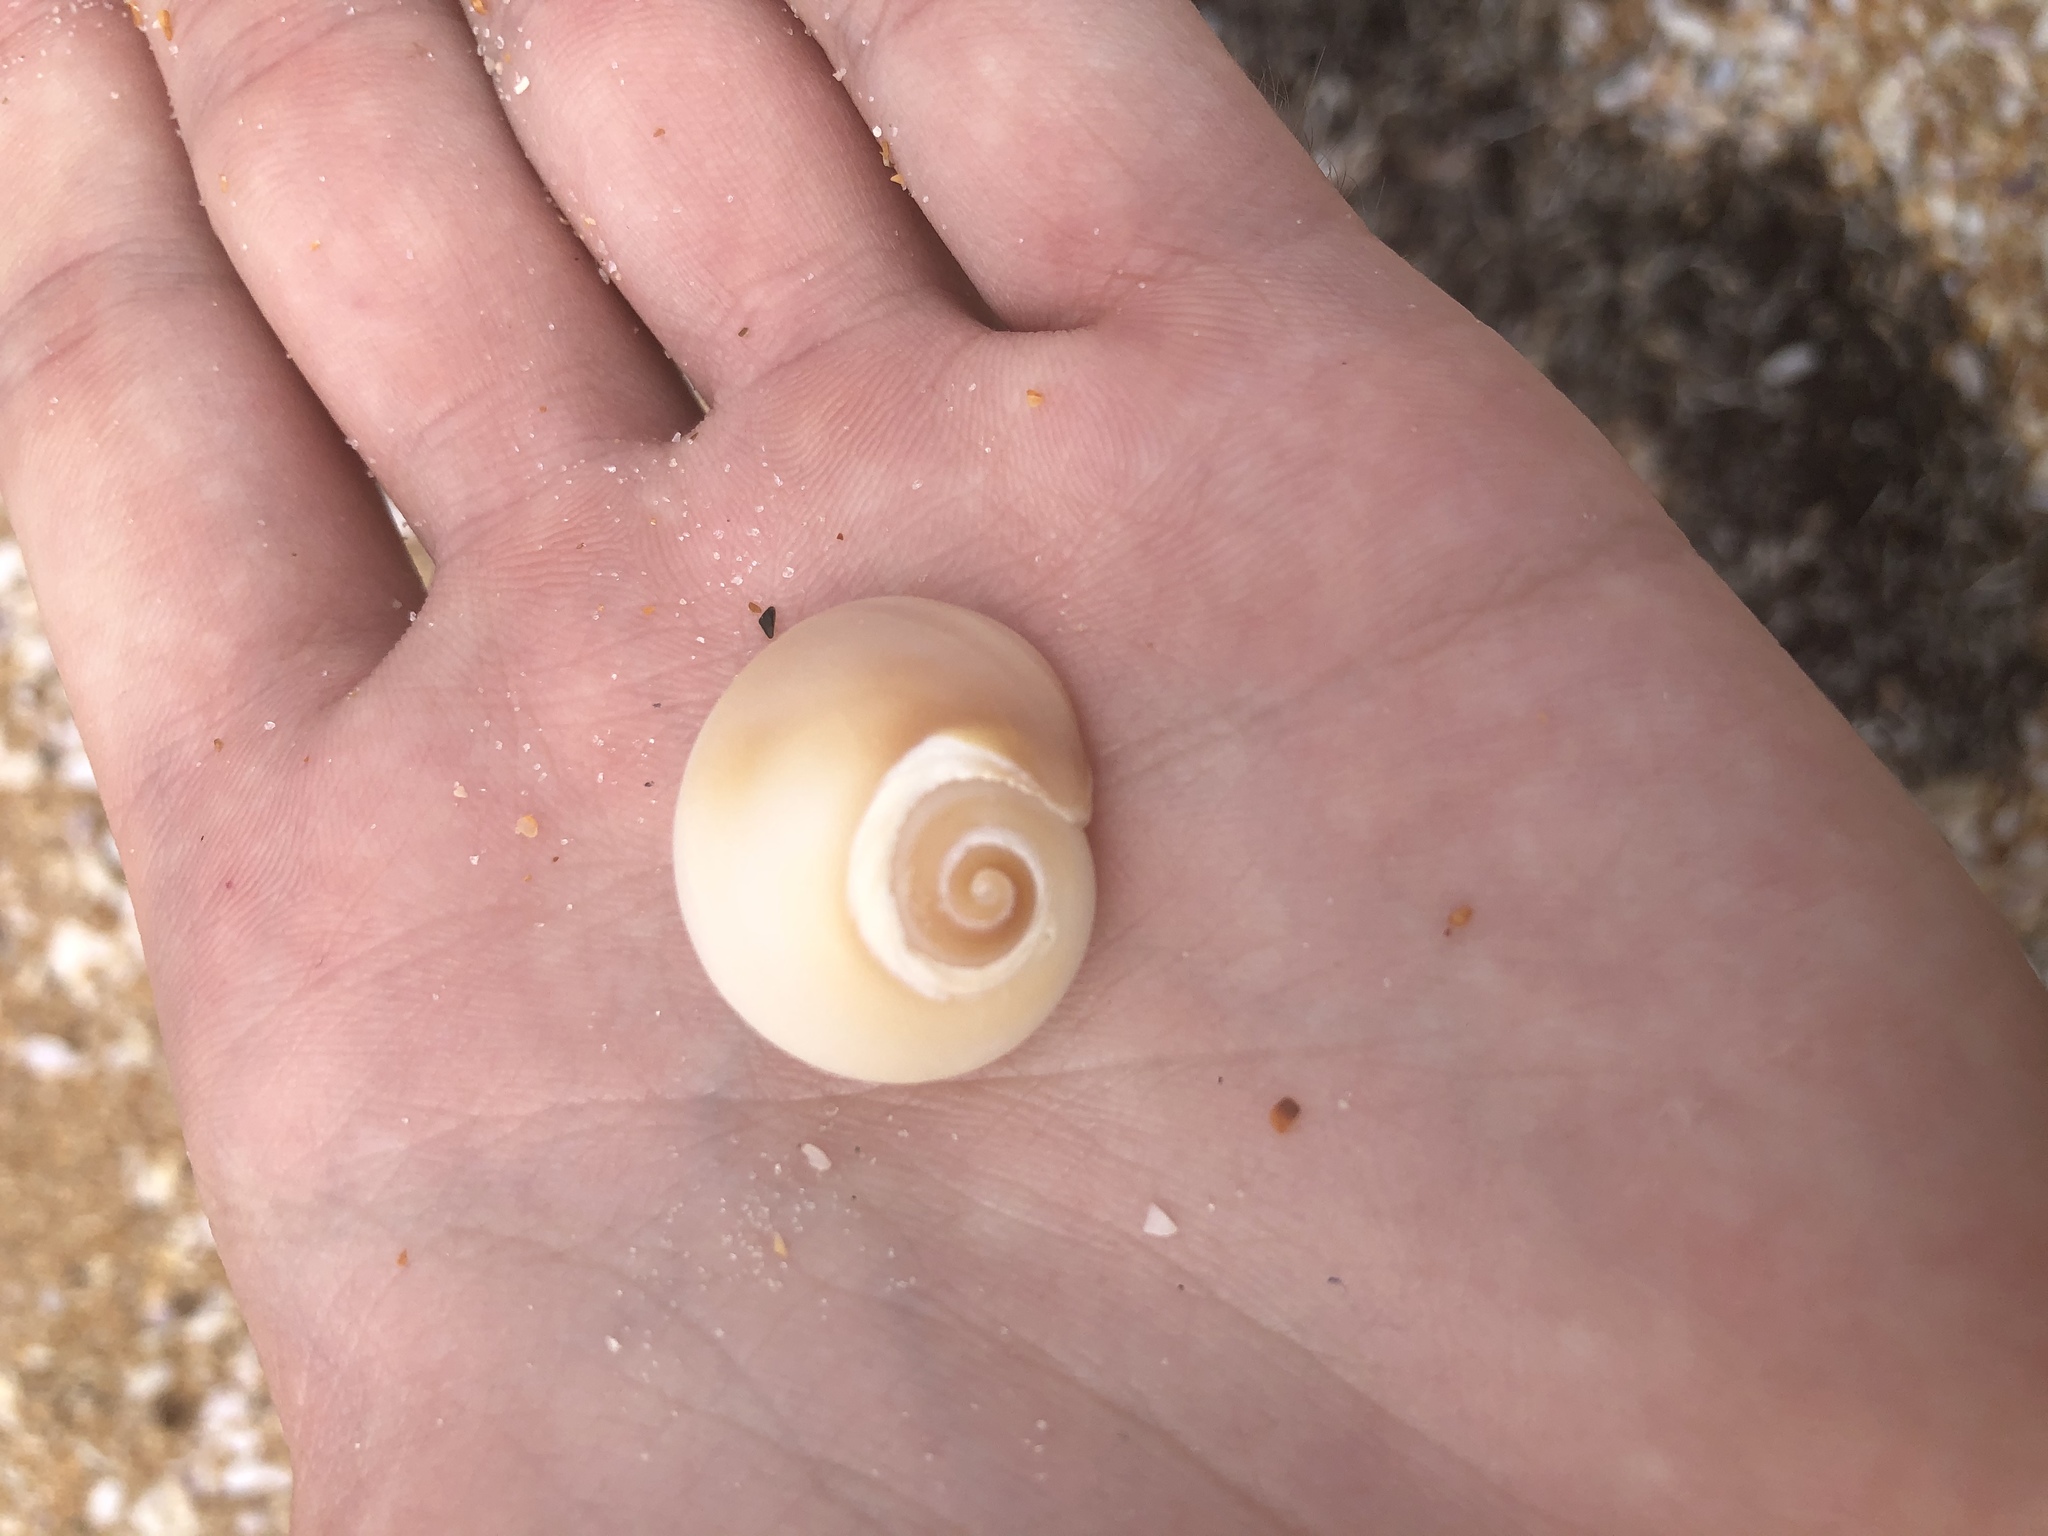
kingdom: Animalia
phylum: Mollusca
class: Gastropoda
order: Littorinimorpha
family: Naticidae
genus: Neverita
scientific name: Neverita delessertiana
